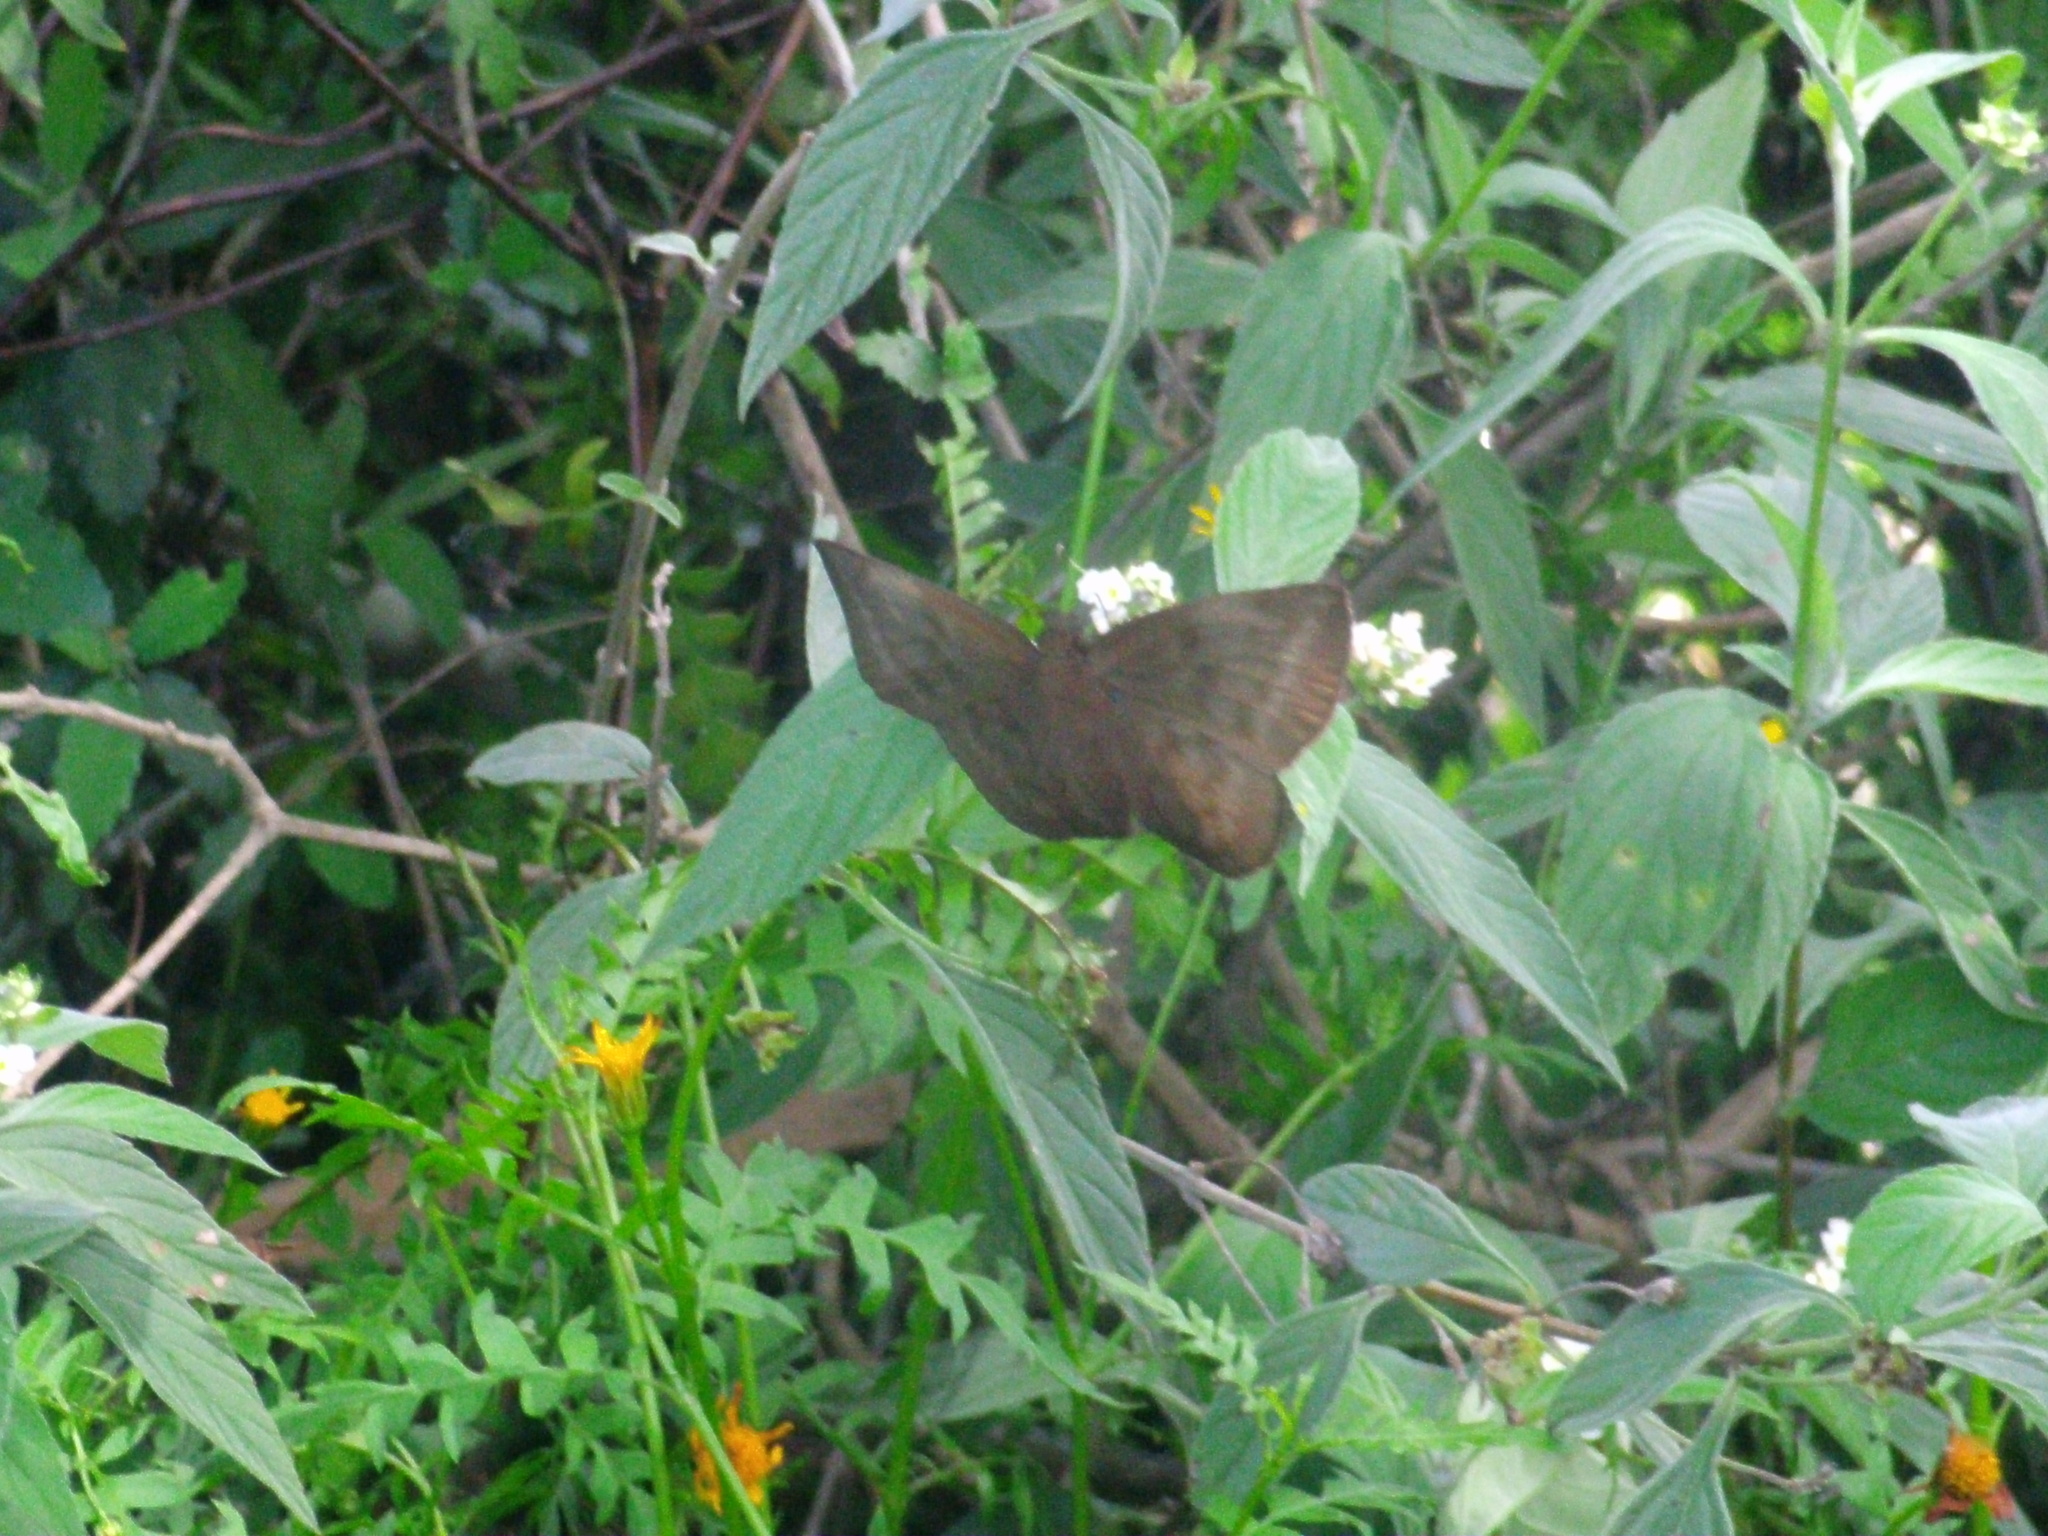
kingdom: Animalia
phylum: Arthropoda
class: Insecta
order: Lepidoptera
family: Hesperiidae
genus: Achlyodes
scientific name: Achlyodes pallida
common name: Pale sicklewing
